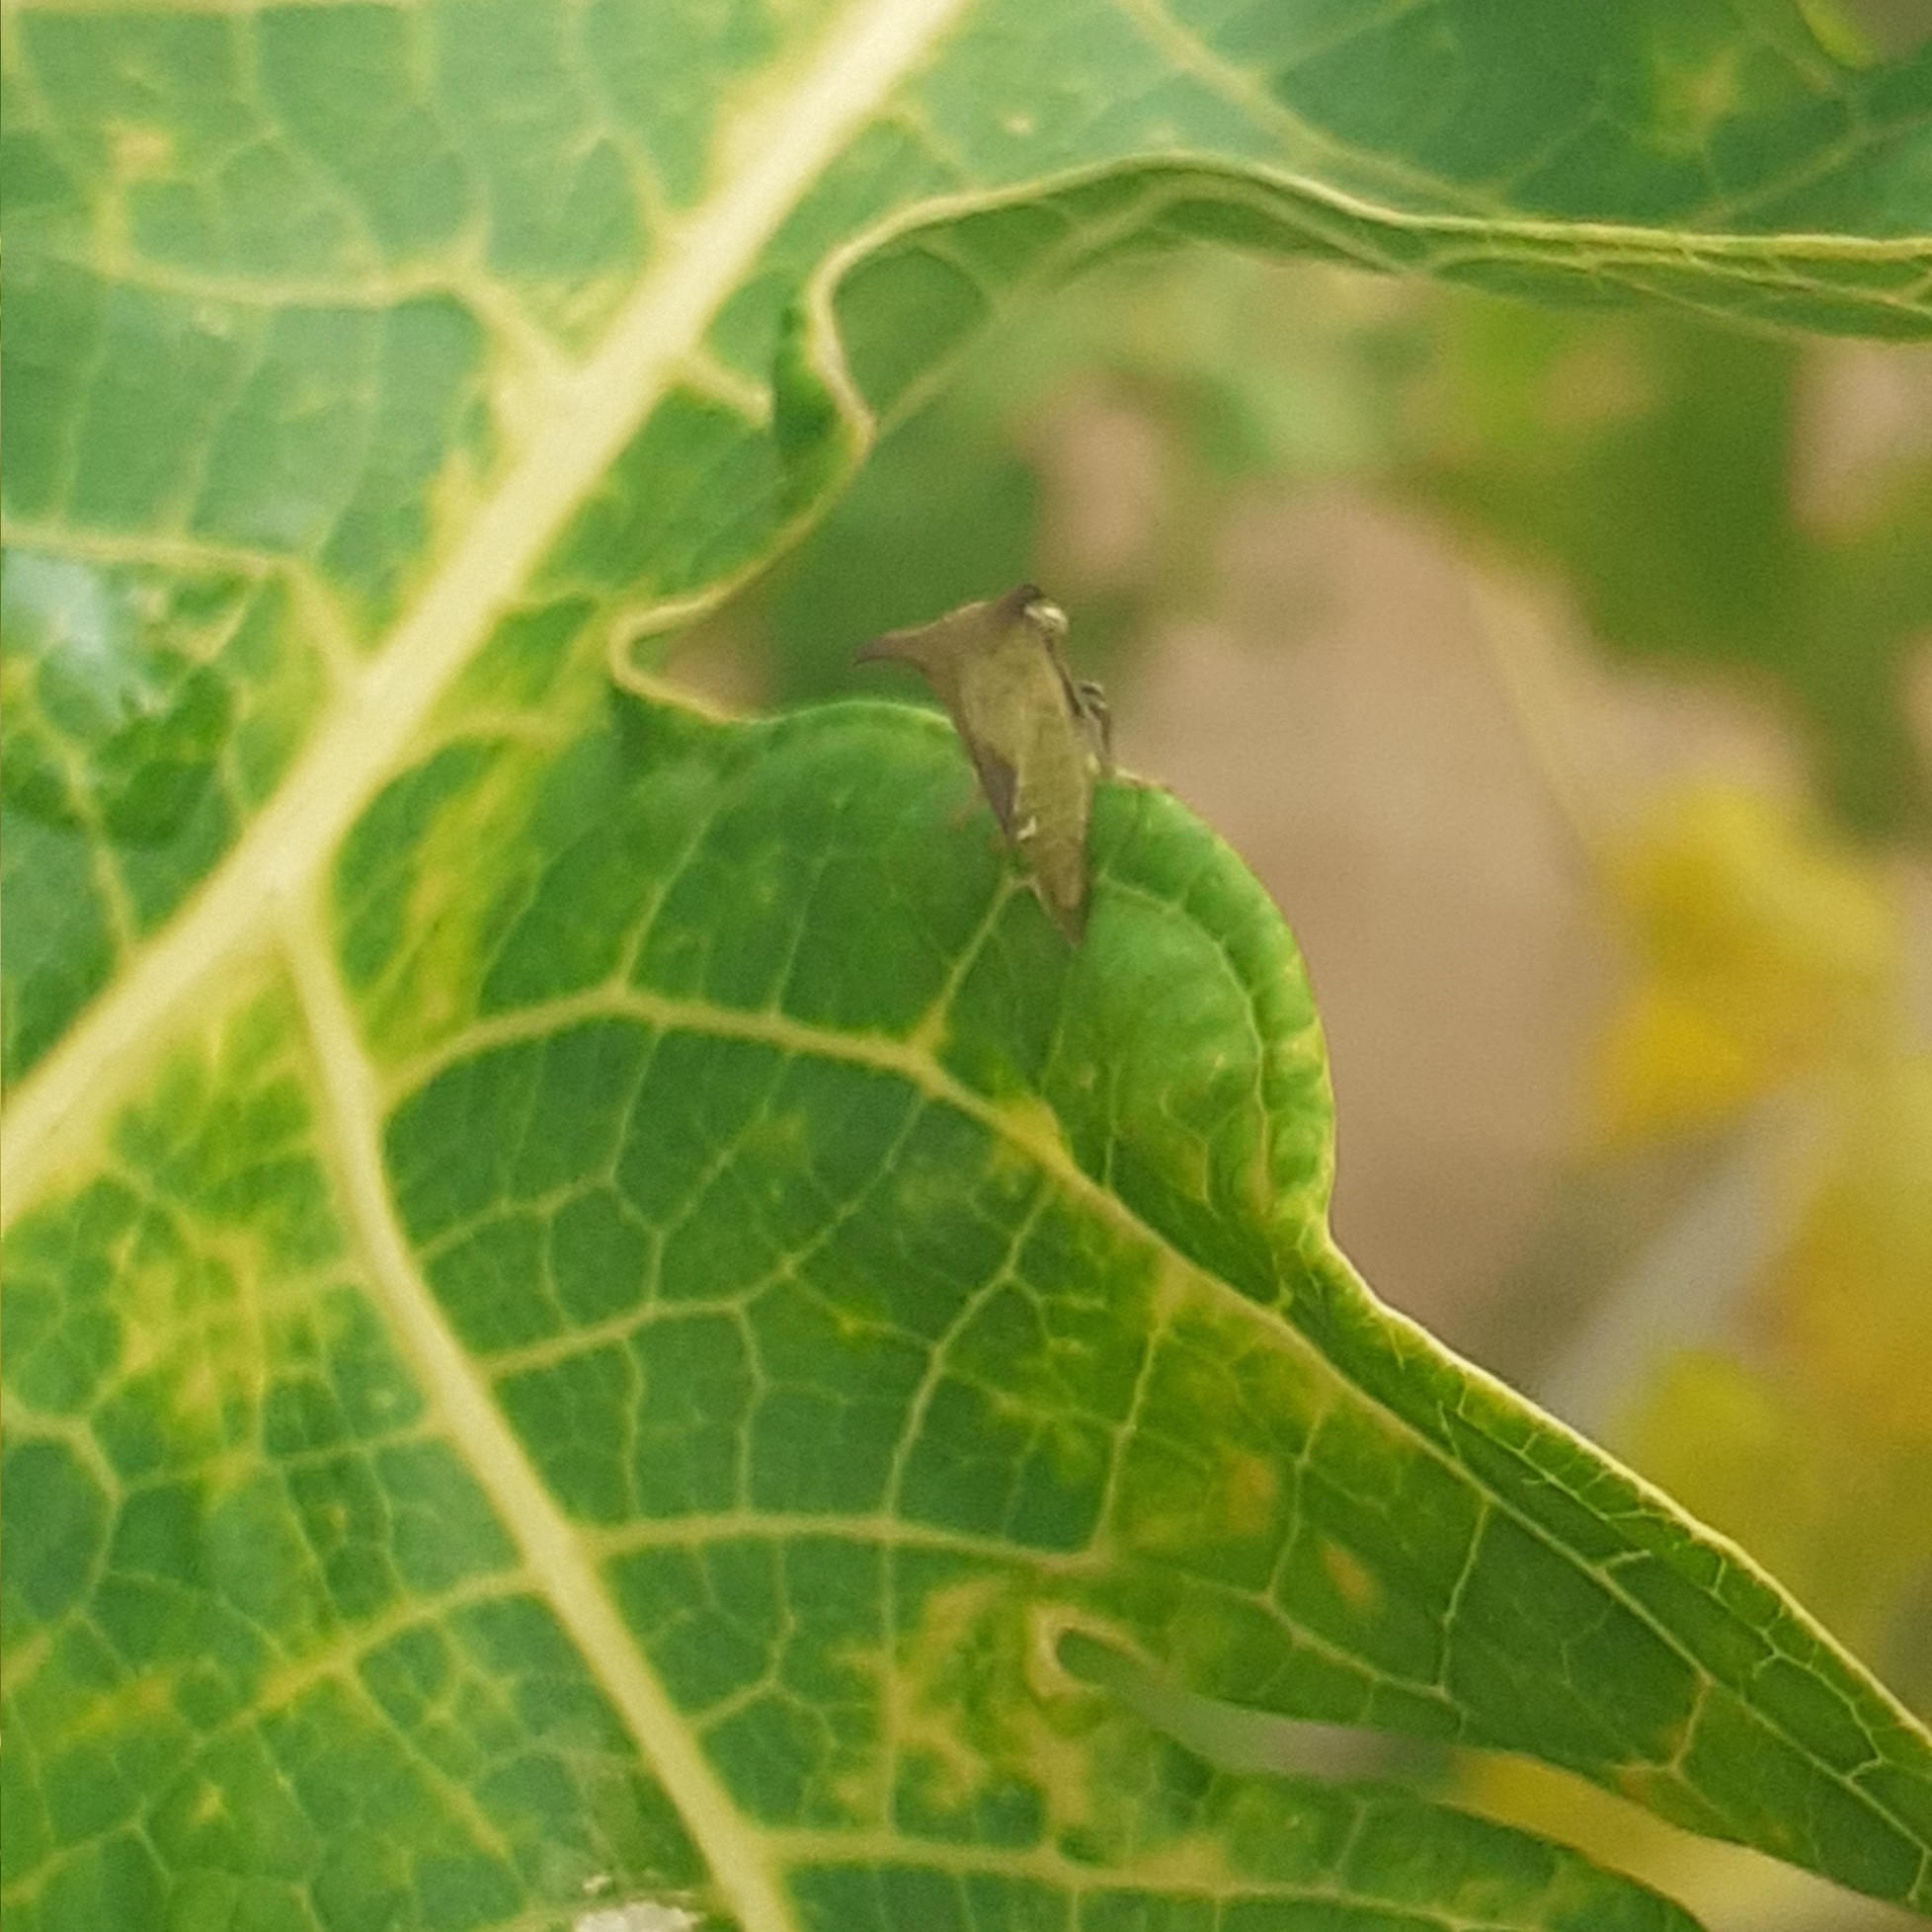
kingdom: Animalia
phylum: Arthropoda
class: Insecta
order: Hemiptera
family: Membracidae
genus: Ceresa
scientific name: Ceresa ustulata
